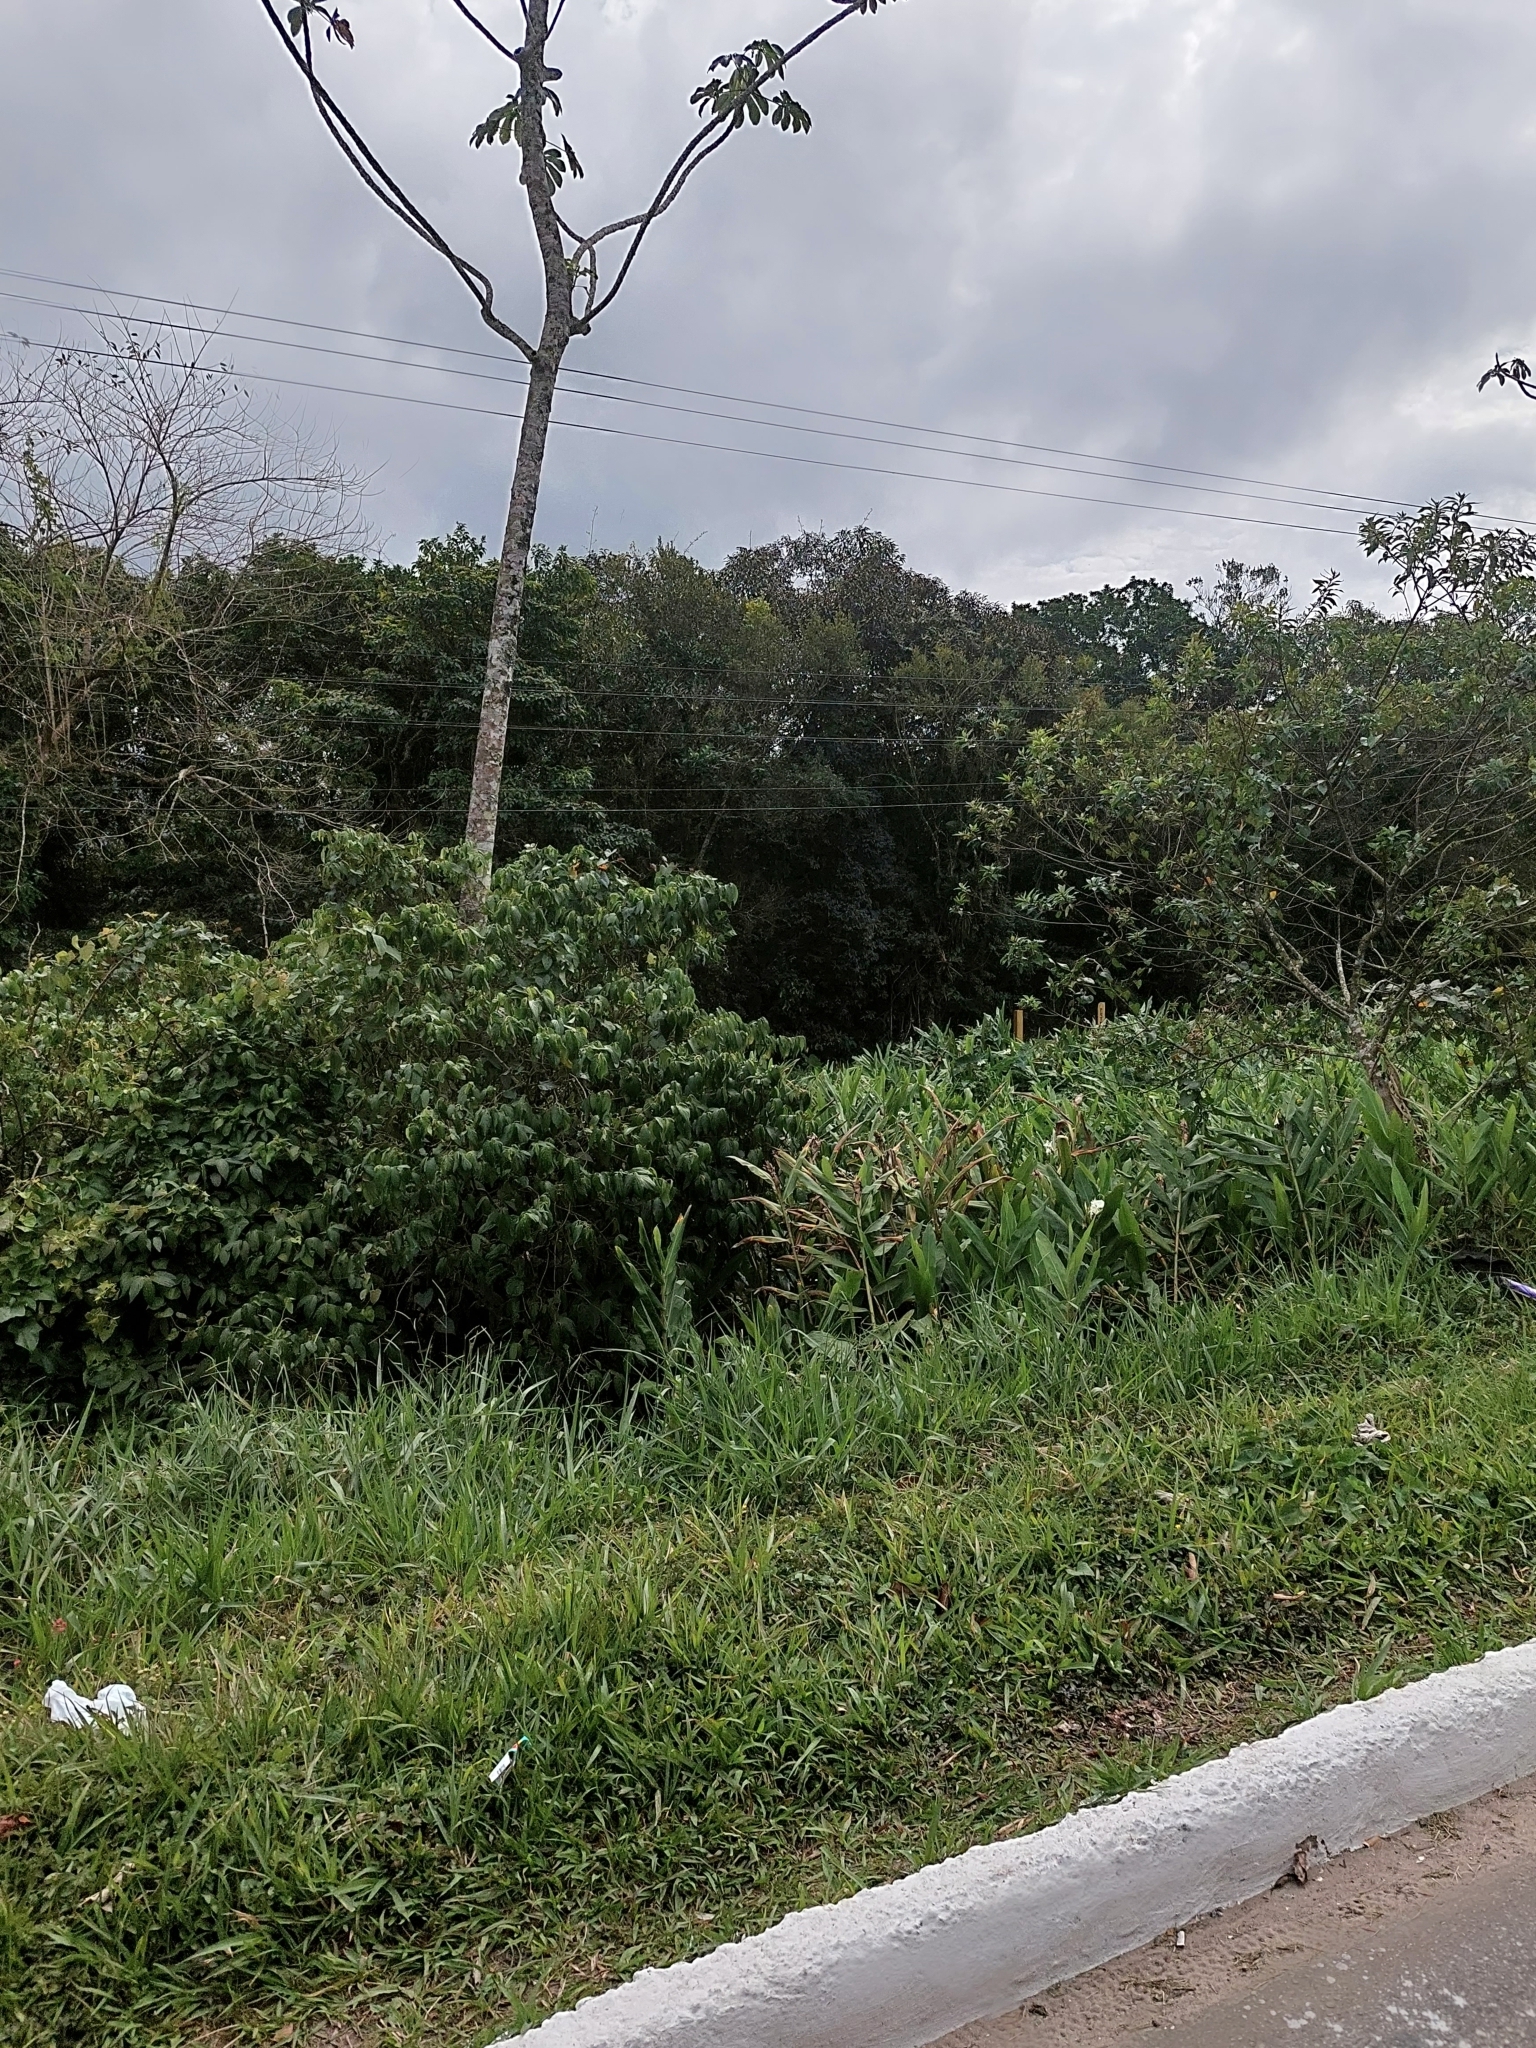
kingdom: Plantae
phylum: Tracheophyta
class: Liliopsida
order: Zingiberales
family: Zingiberaceae
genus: Hedychium
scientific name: Hedychium coronarium
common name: White garland-lily
